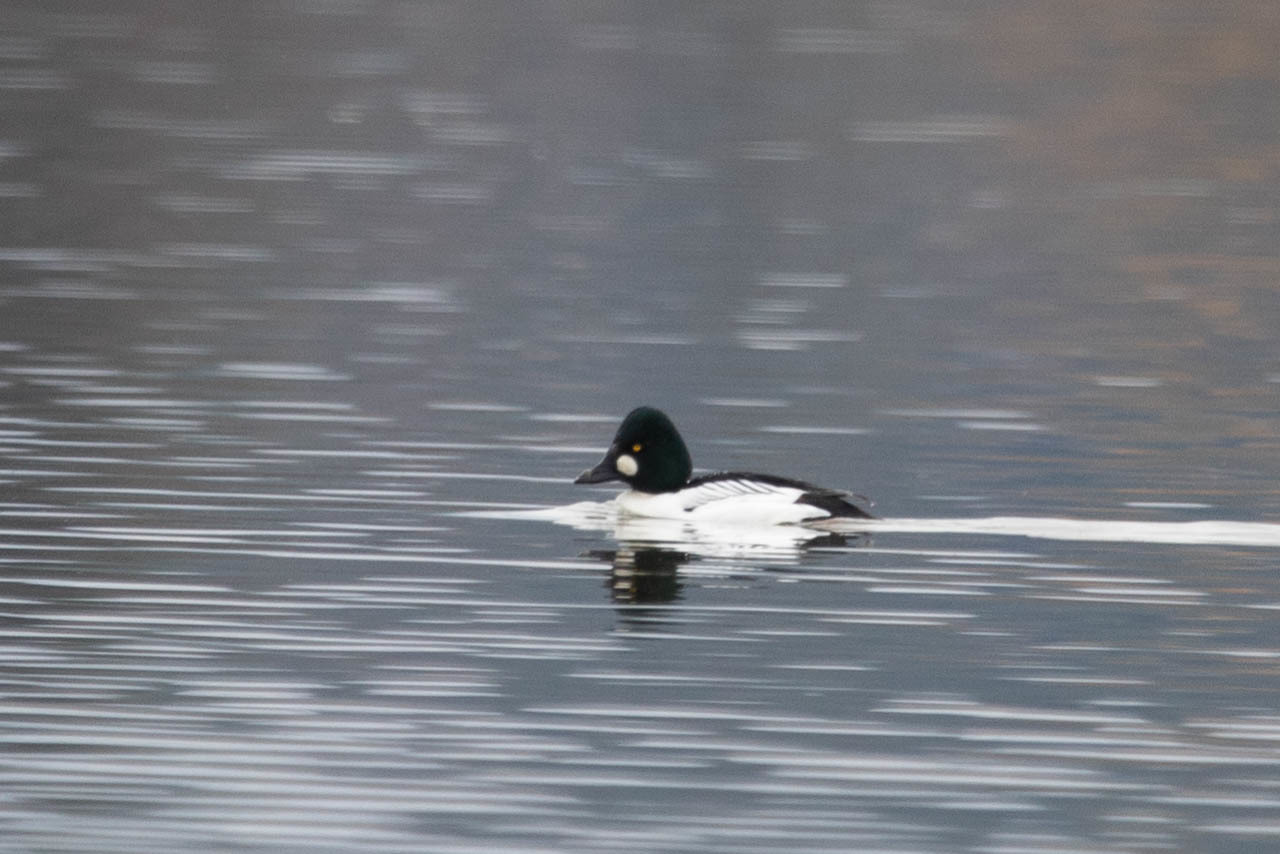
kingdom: Animalia
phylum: Chordata
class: Aves
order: Anseriformes
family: Anatidae
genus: Bucephala
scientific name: Bucephala clangula
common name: Common goldeneye
